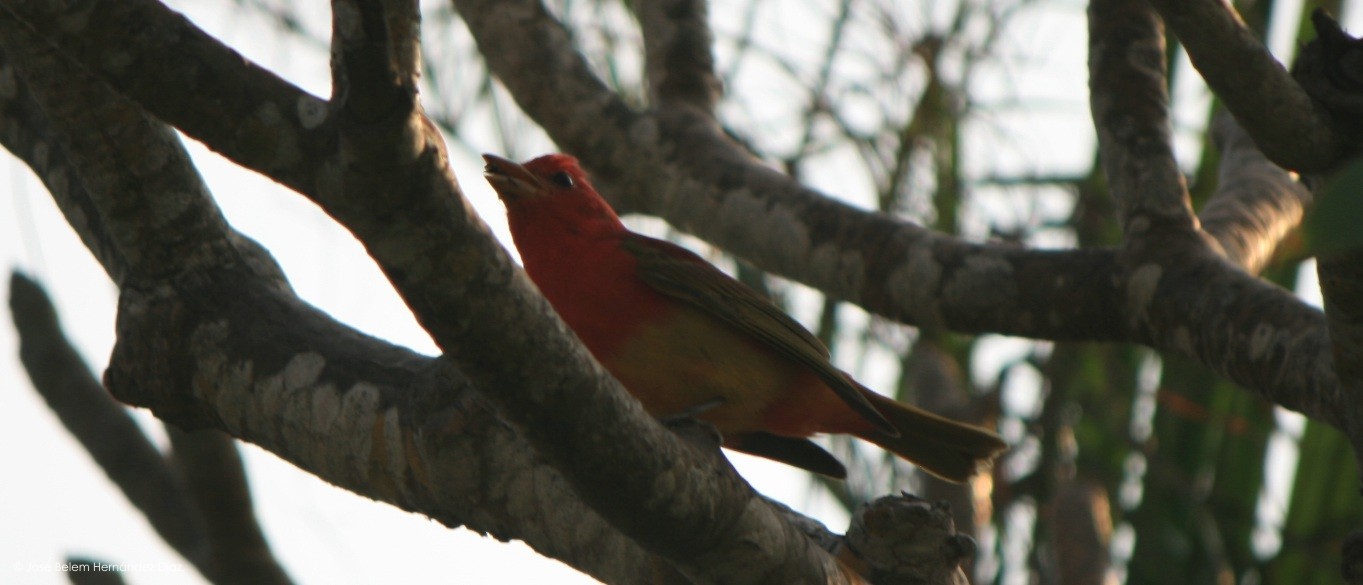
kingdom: Animalia
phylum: Chordata
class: Aves
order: Passeriformes
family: Cardinalidae
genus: Piranga
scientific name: Piranga rubra
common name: Summer tanager
